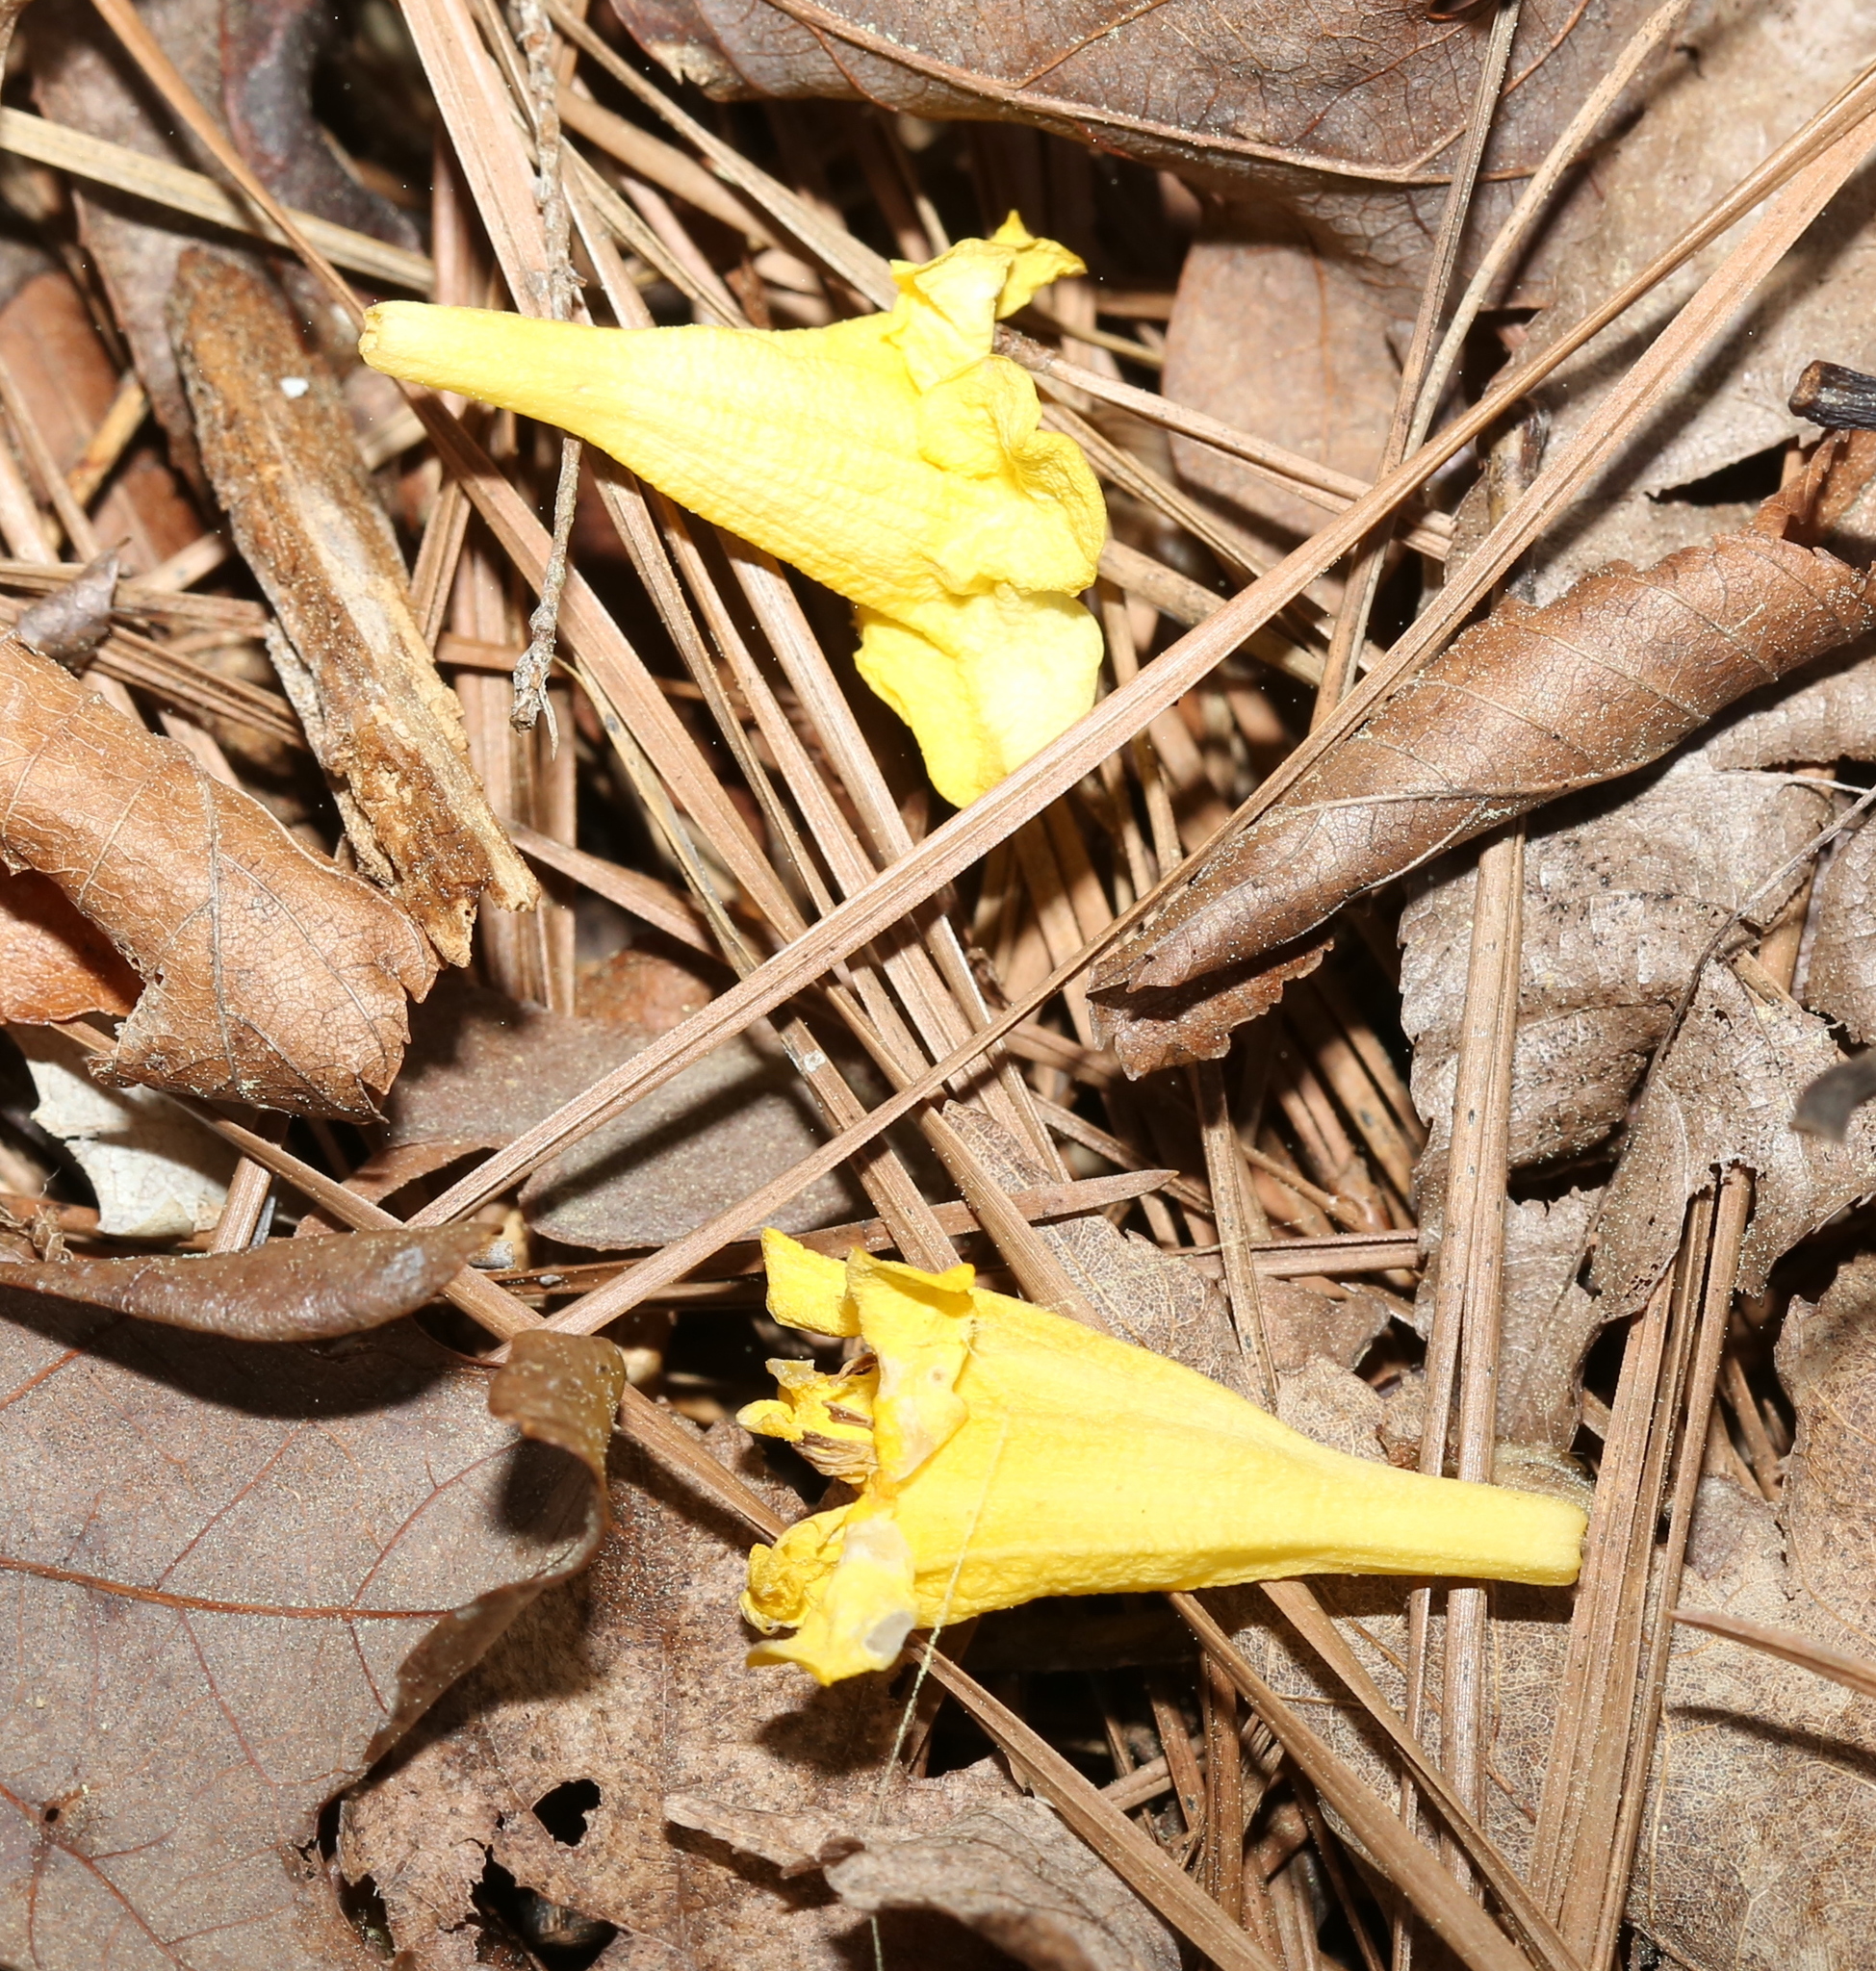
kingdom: Plantae
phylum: Tracheophyta
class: Magnoliopsida
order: Gentianales
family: Gelsemiaceae
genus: Gelsemium
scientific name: Gelsemium sempervirens
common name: Carolina-jasmine
